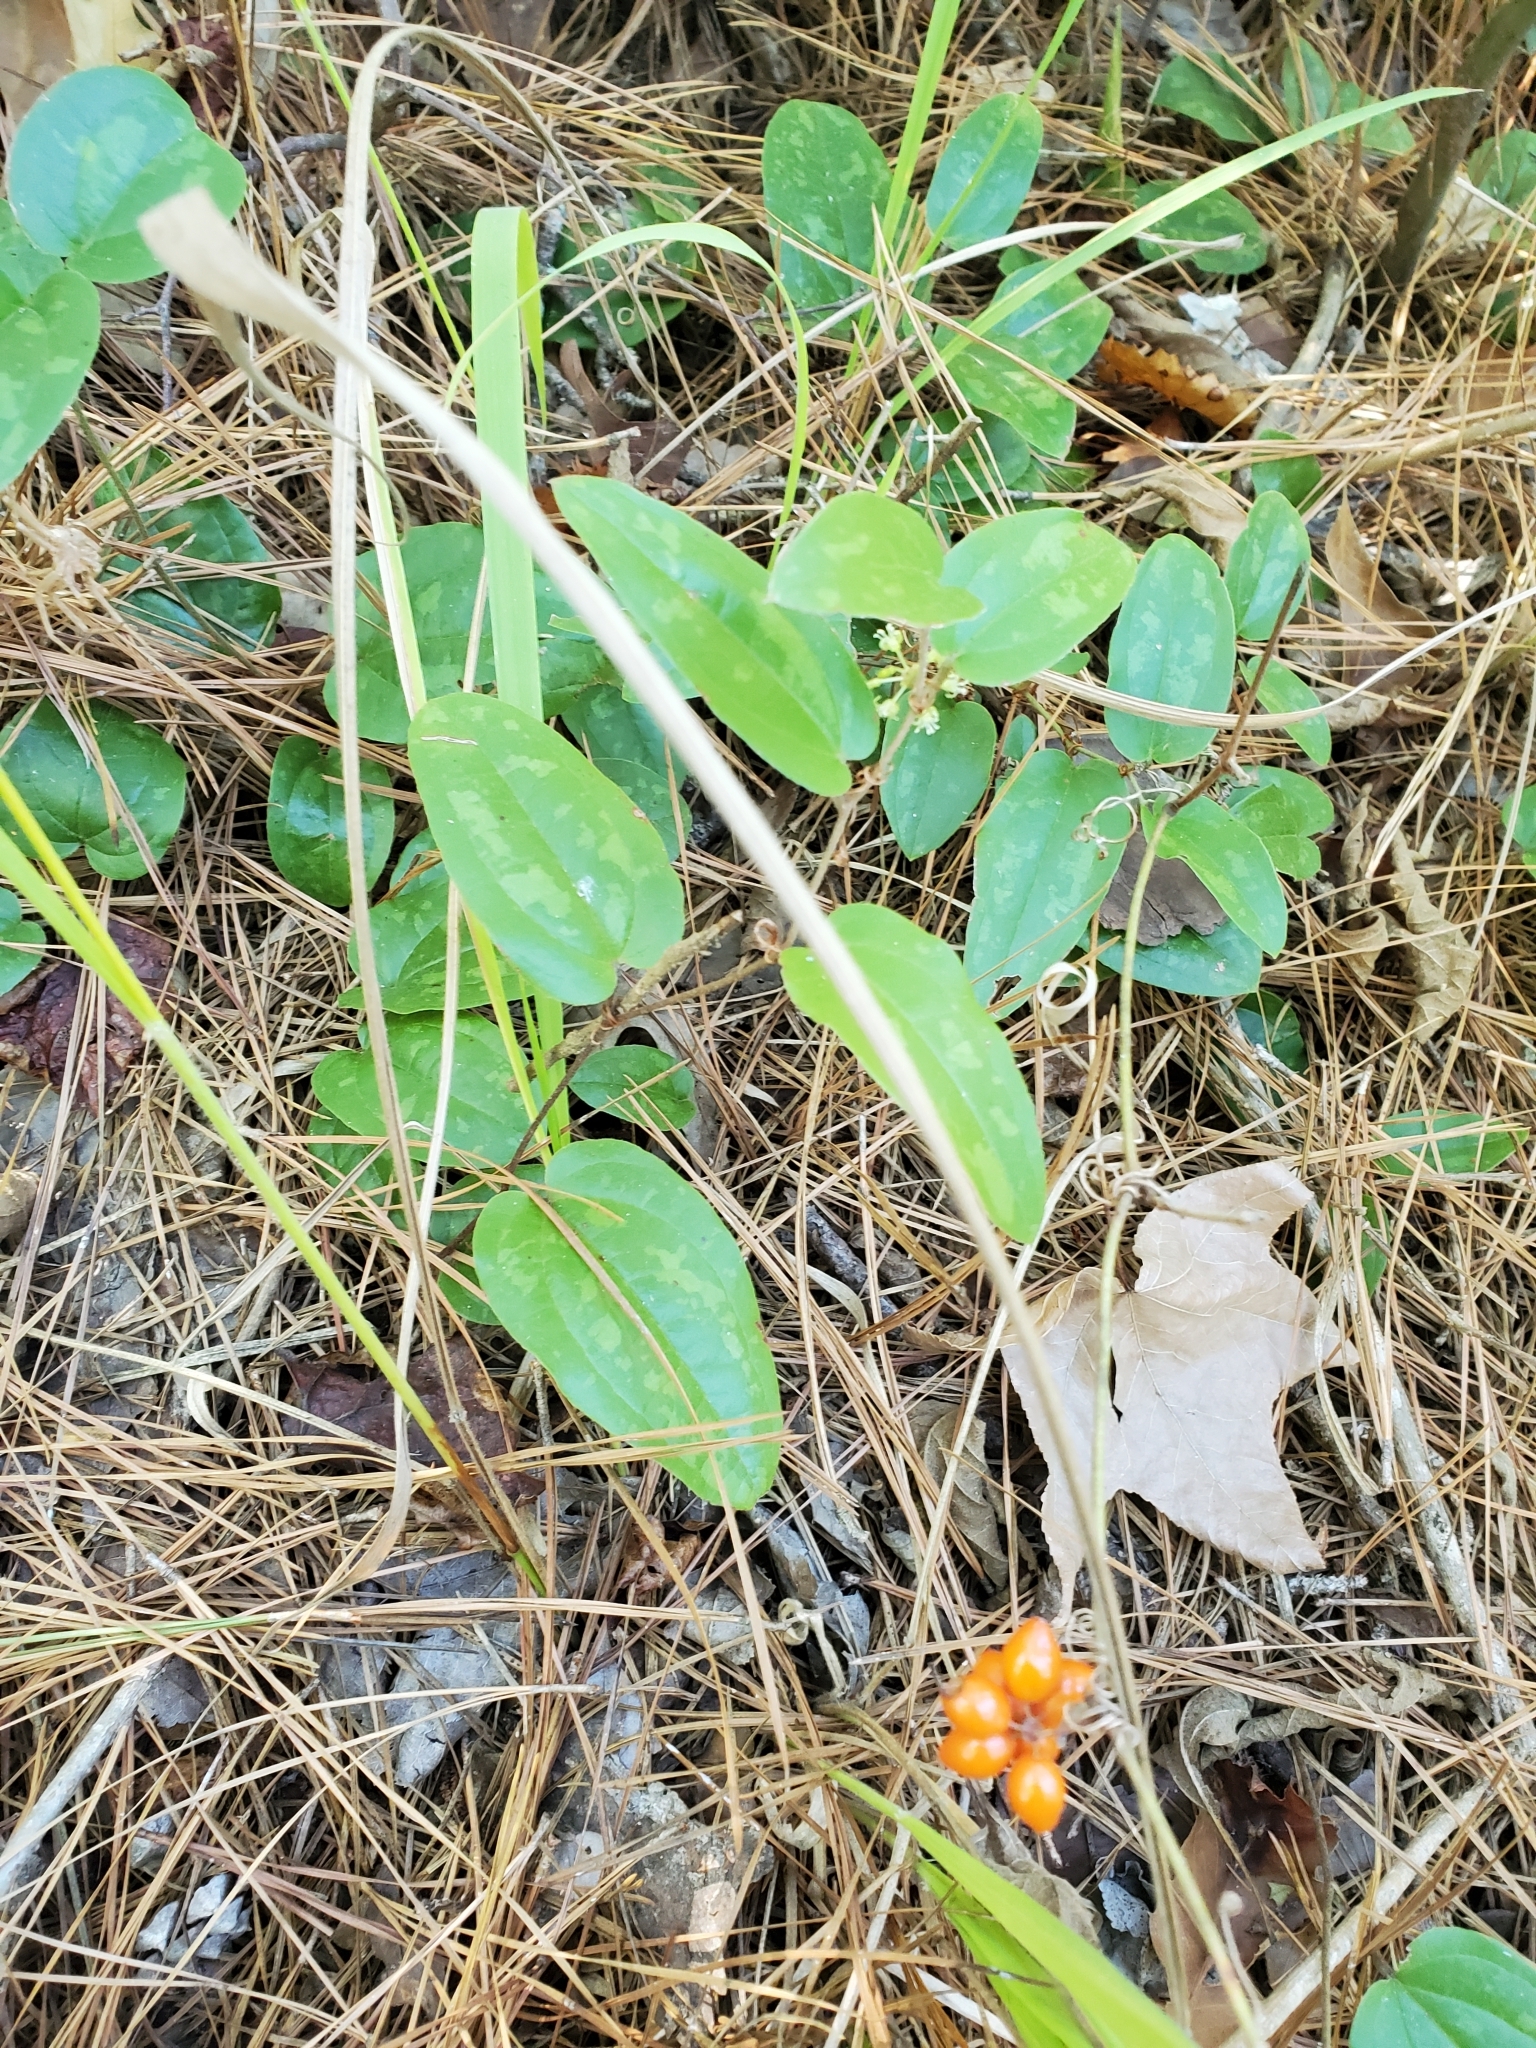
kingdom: Plantae
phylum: Tracheophyta
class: Liliopsida
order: Liliales
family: Smilacaceae
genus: Smilax
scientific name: Smilax pumila
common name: Sarsaparilla-vine
